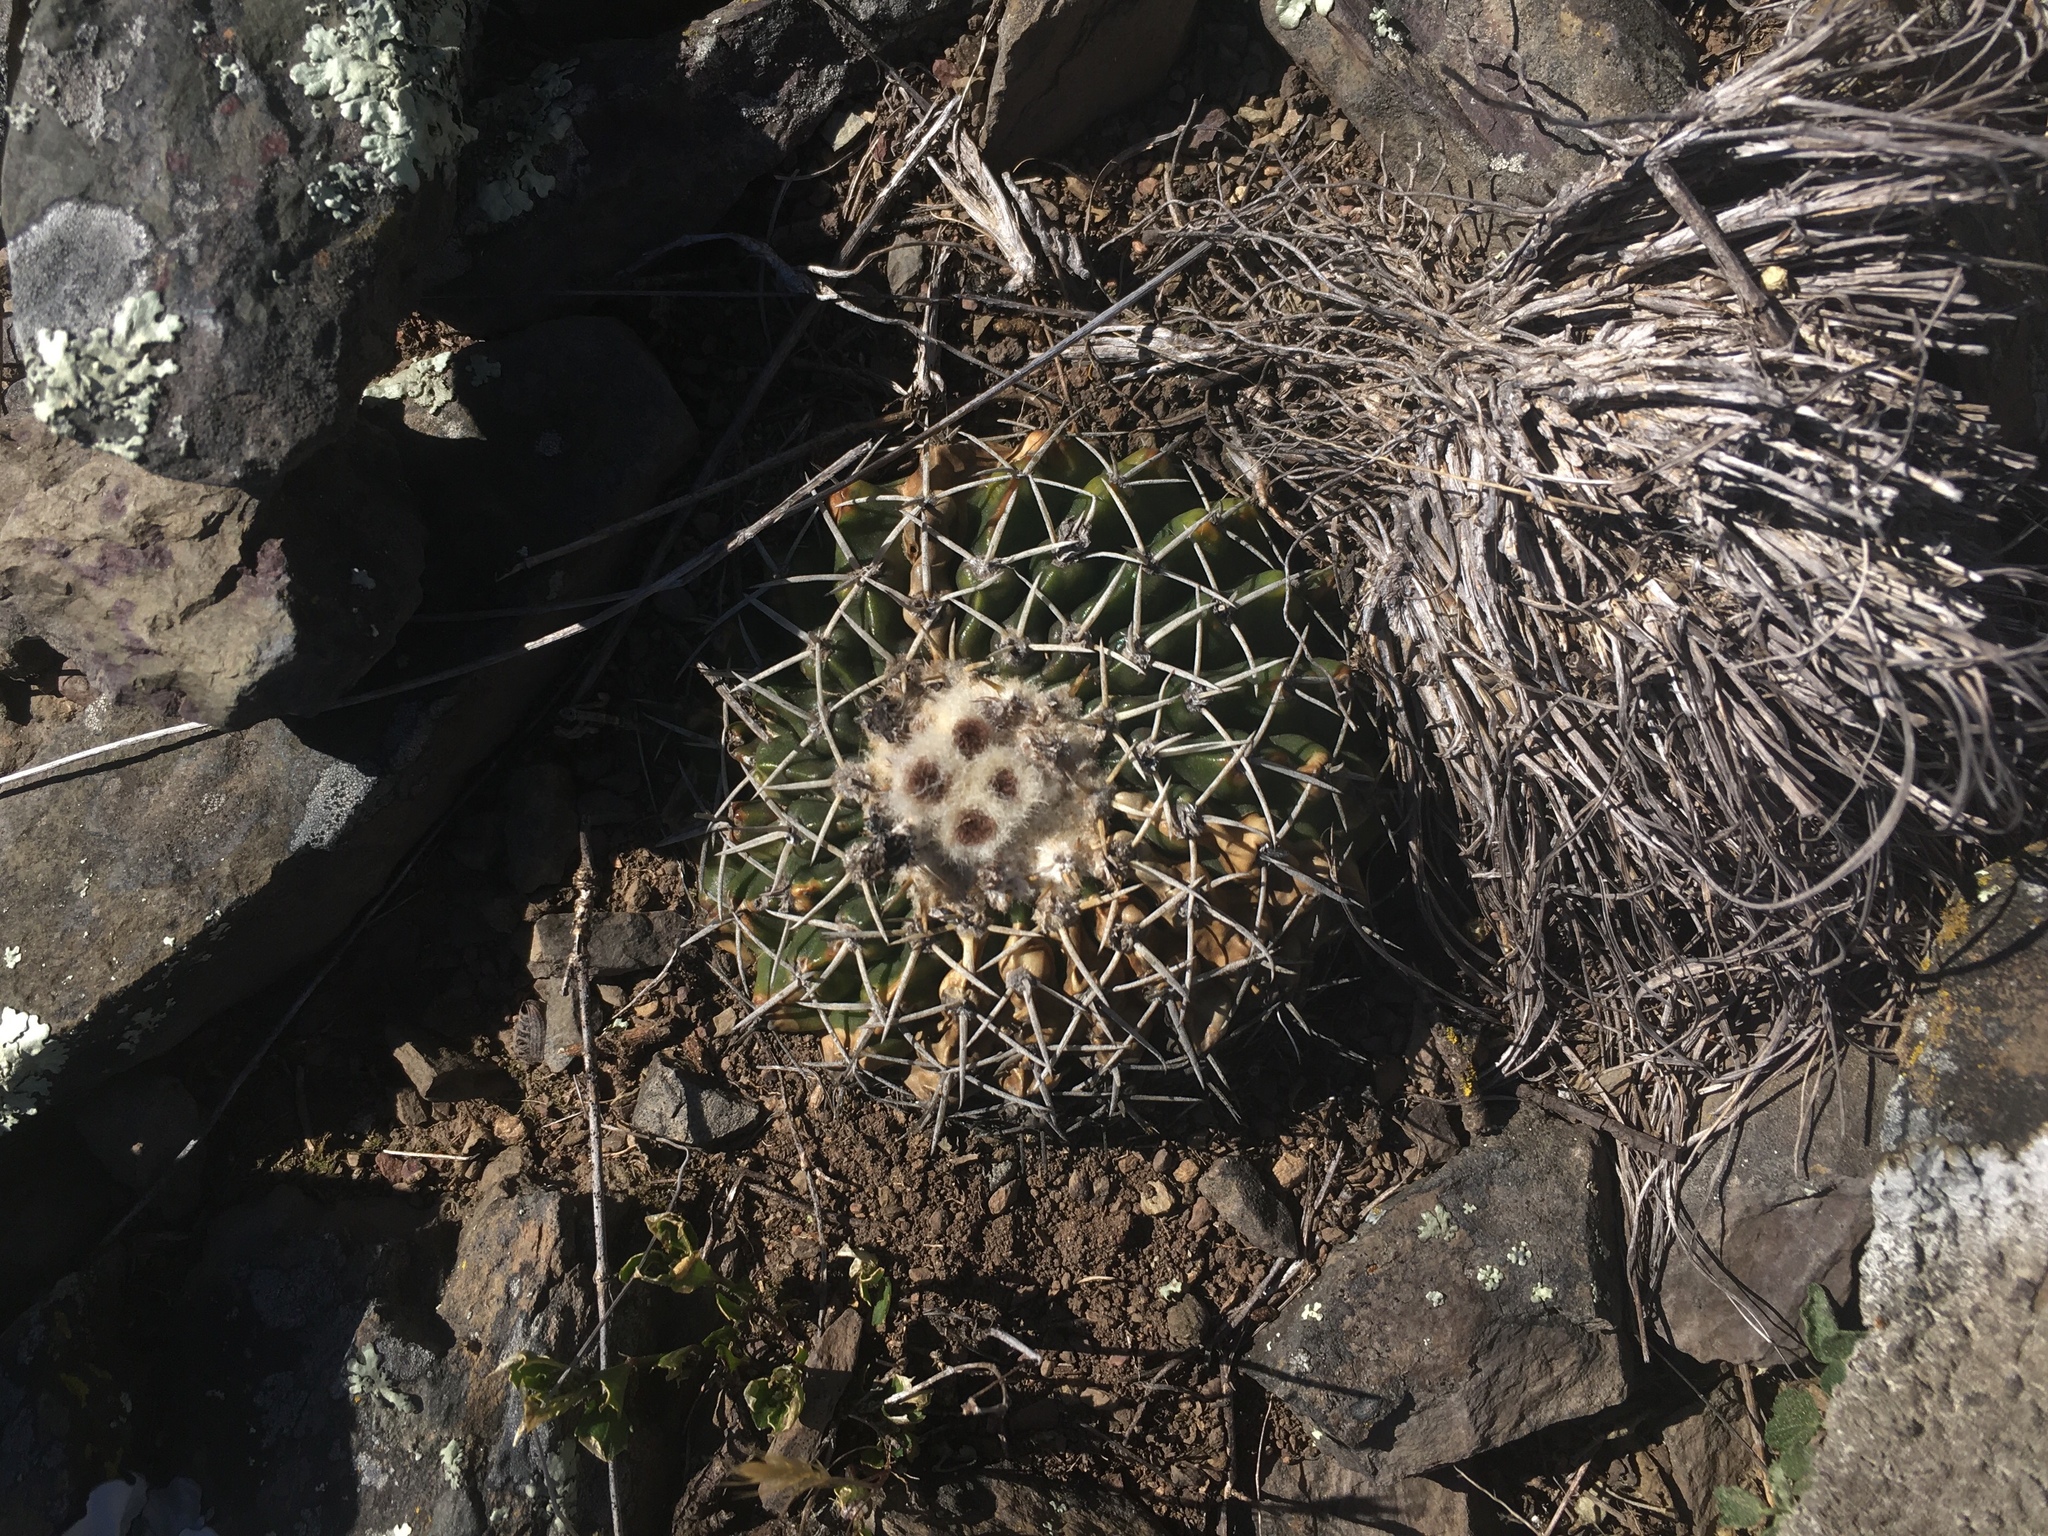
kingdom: Plantae
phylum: Tracheophyta
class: Magnoliopsida
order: Caryophyllales
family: Cactaceae
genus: Parodia
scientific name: Parodia erinacea
